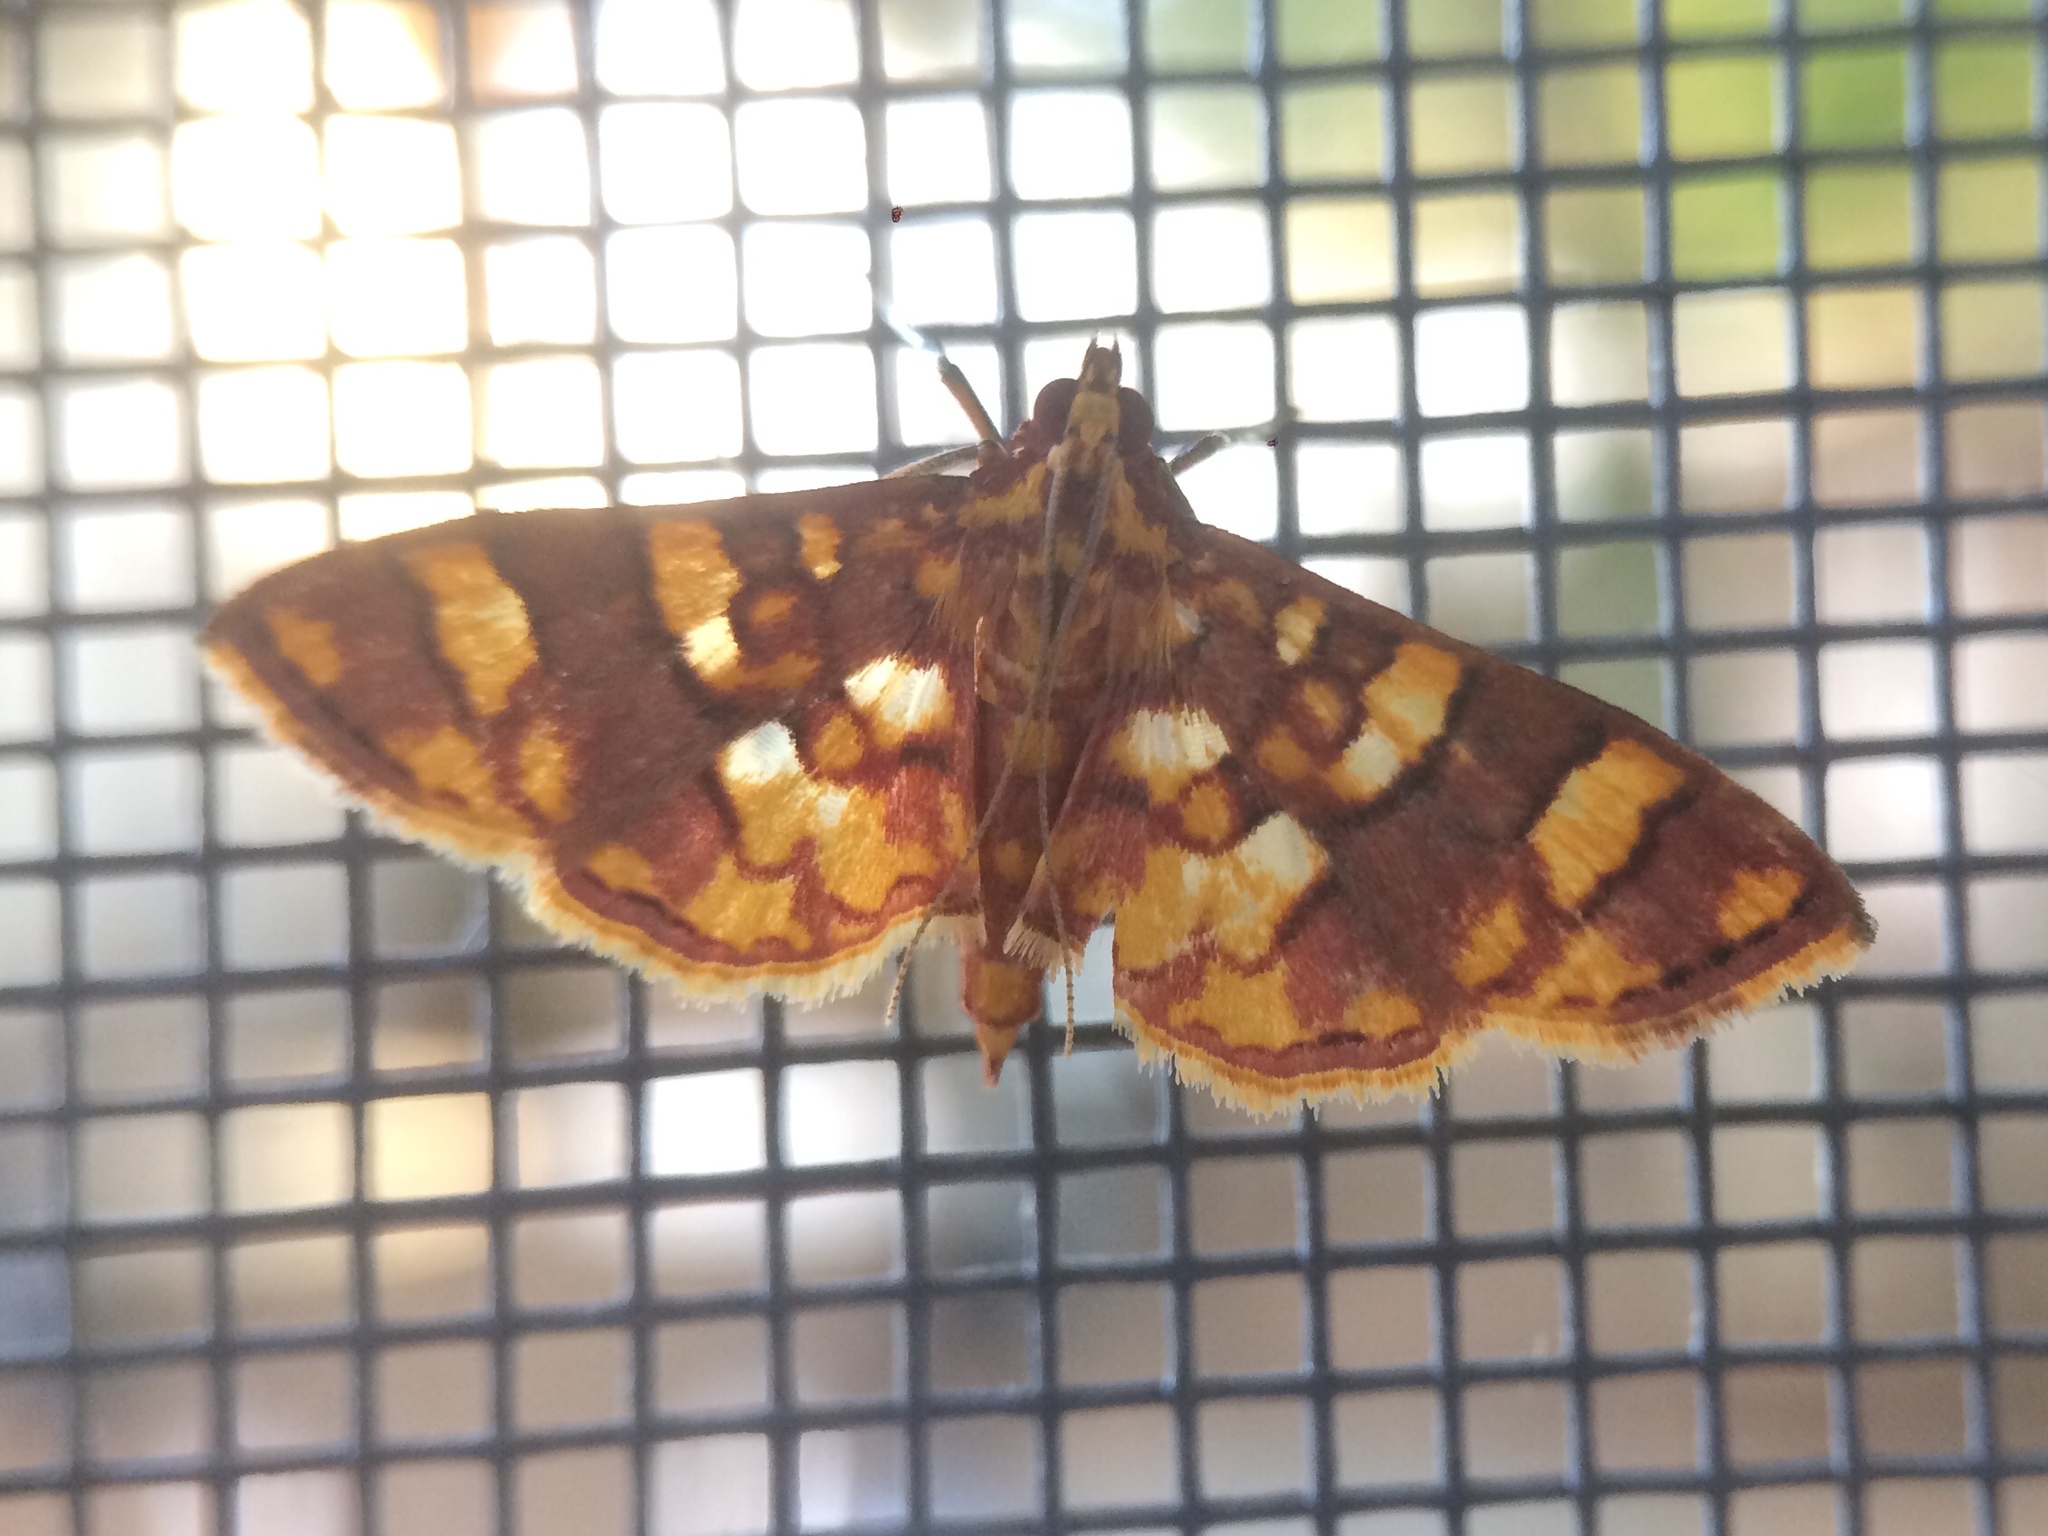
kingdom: Animalia
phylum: Arthropoda
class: Insecta
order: Lepidoptera
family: Crambidae
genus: Glyphodes
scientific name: Glyphodes
